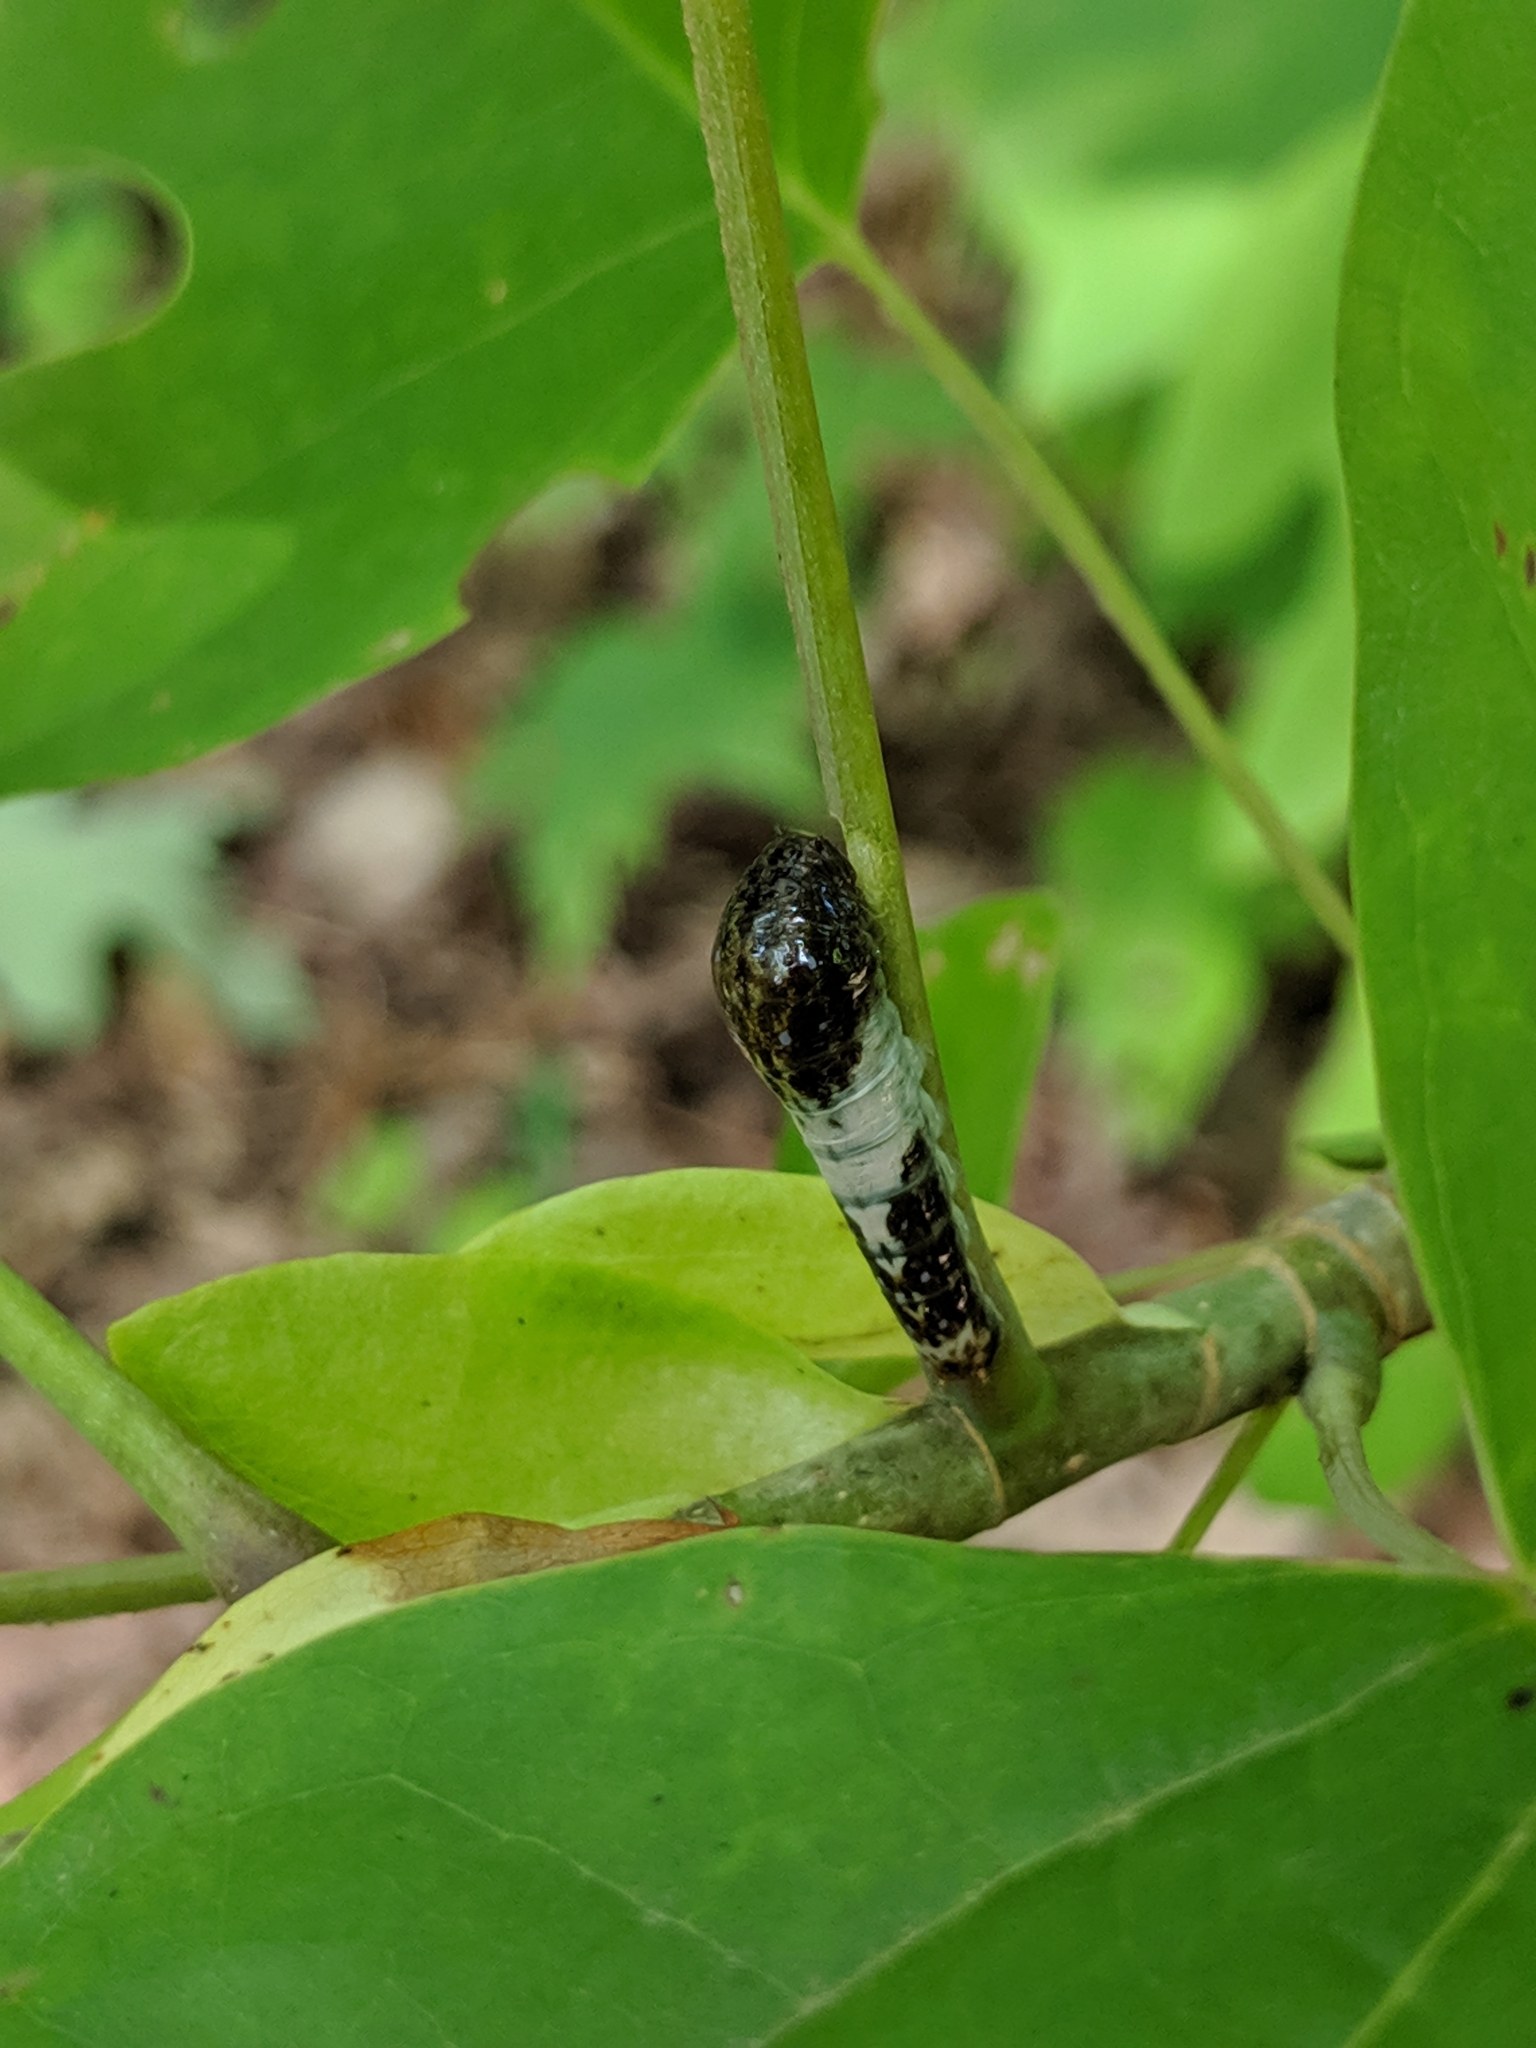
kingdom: Animalia
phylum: Arthropoda
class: Insecta
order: Lepidoptera
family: Papilionidae
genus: Papilio
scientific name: Papilio glaucus
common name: Tiger swallowtail
